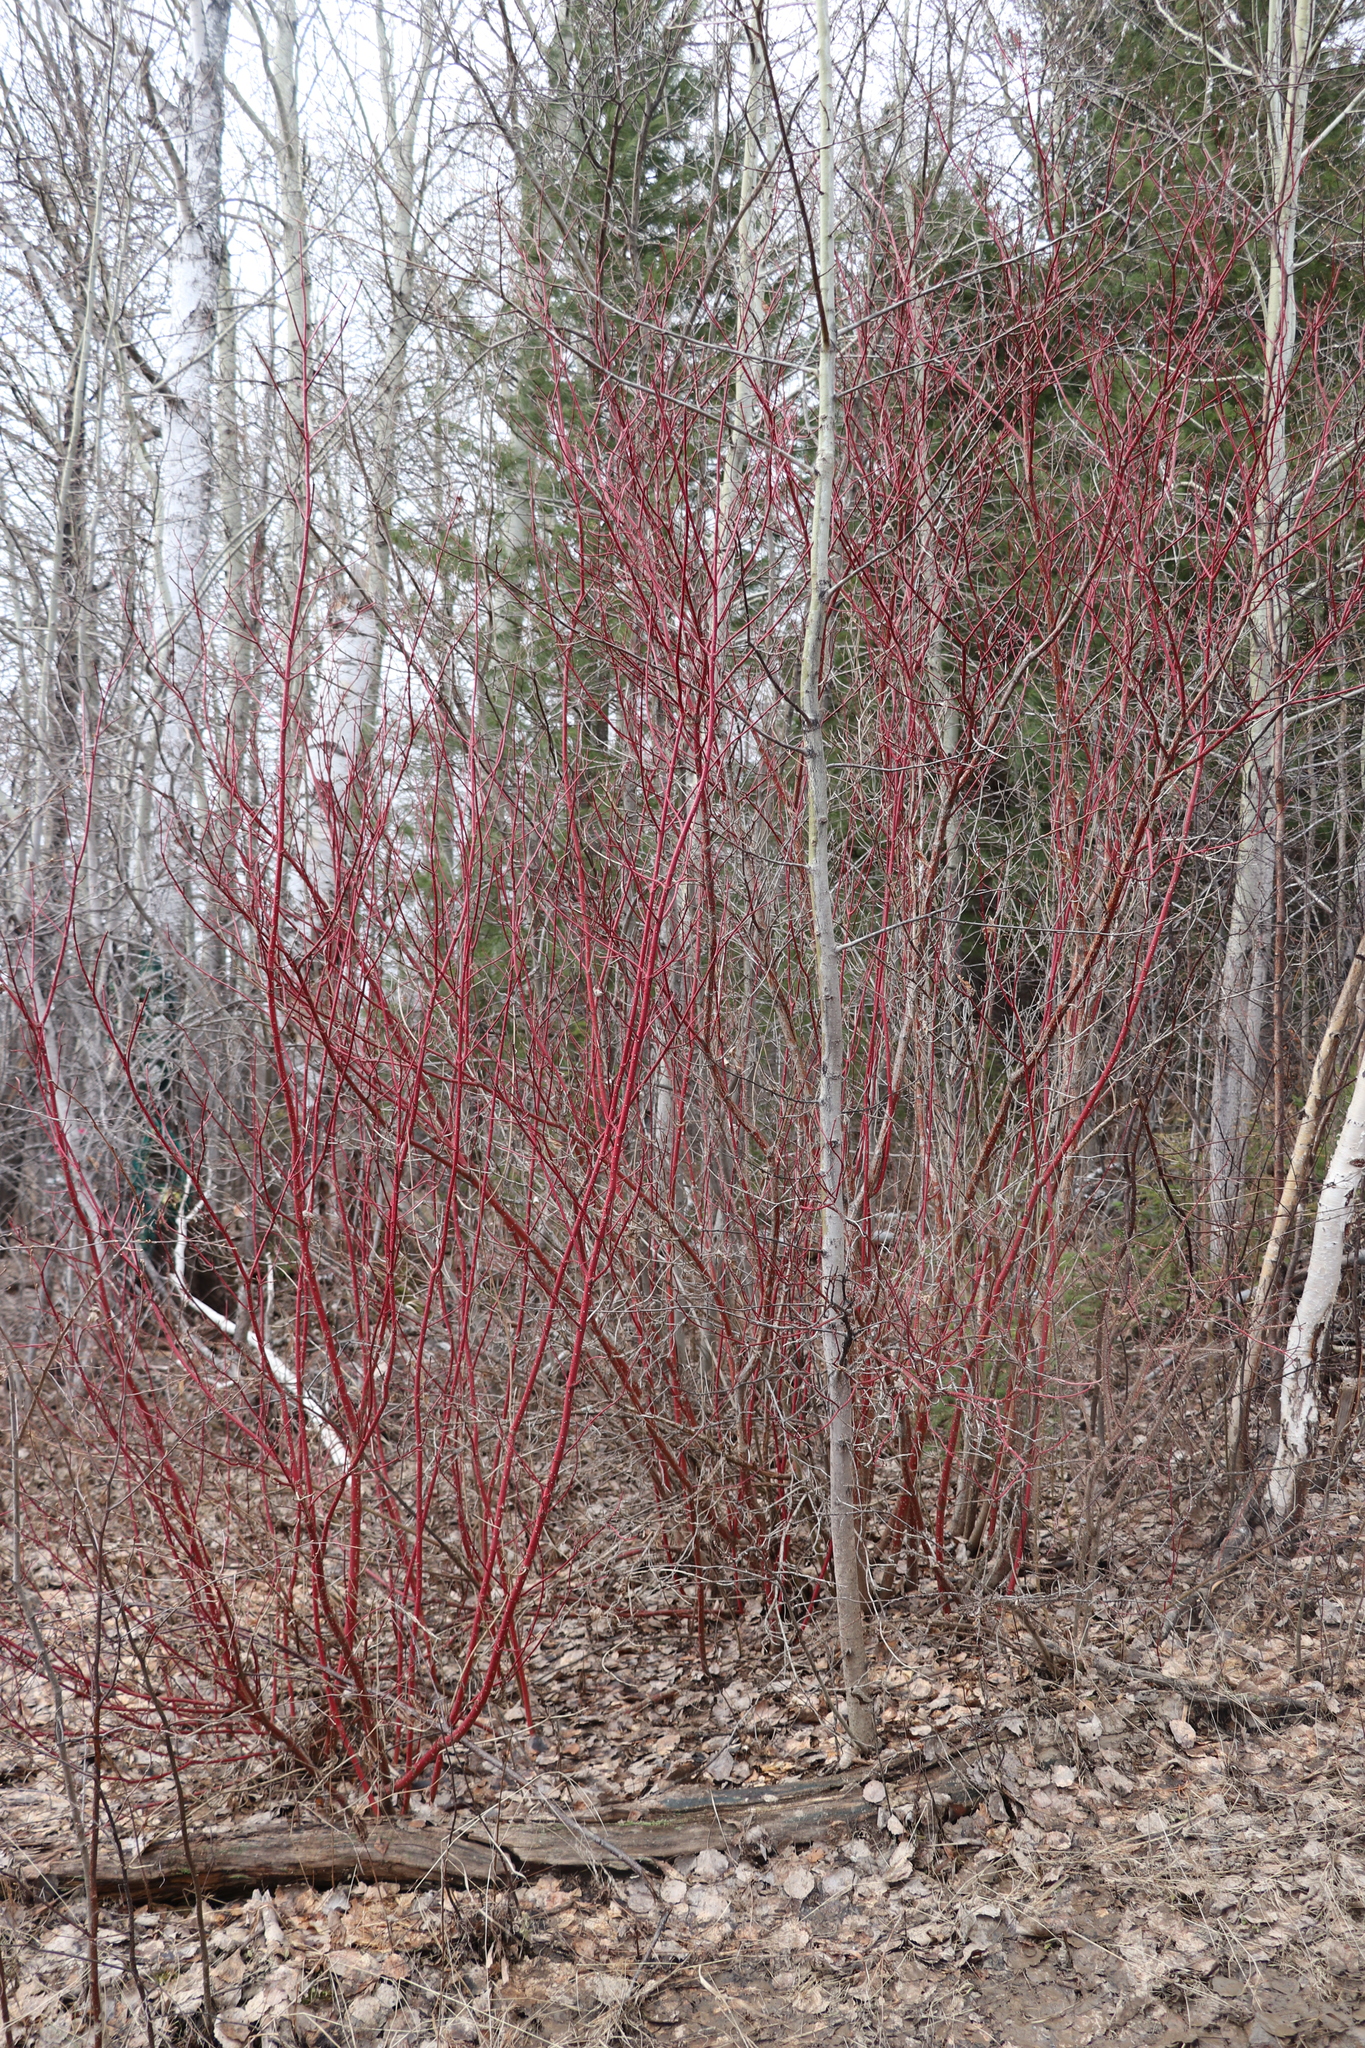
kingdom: Plantae
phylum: Tracheophyta
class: Magnoliopsida
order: Cornales
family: Cornaceae
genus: Cornus
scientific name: Cornus alba
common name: White dogwood
